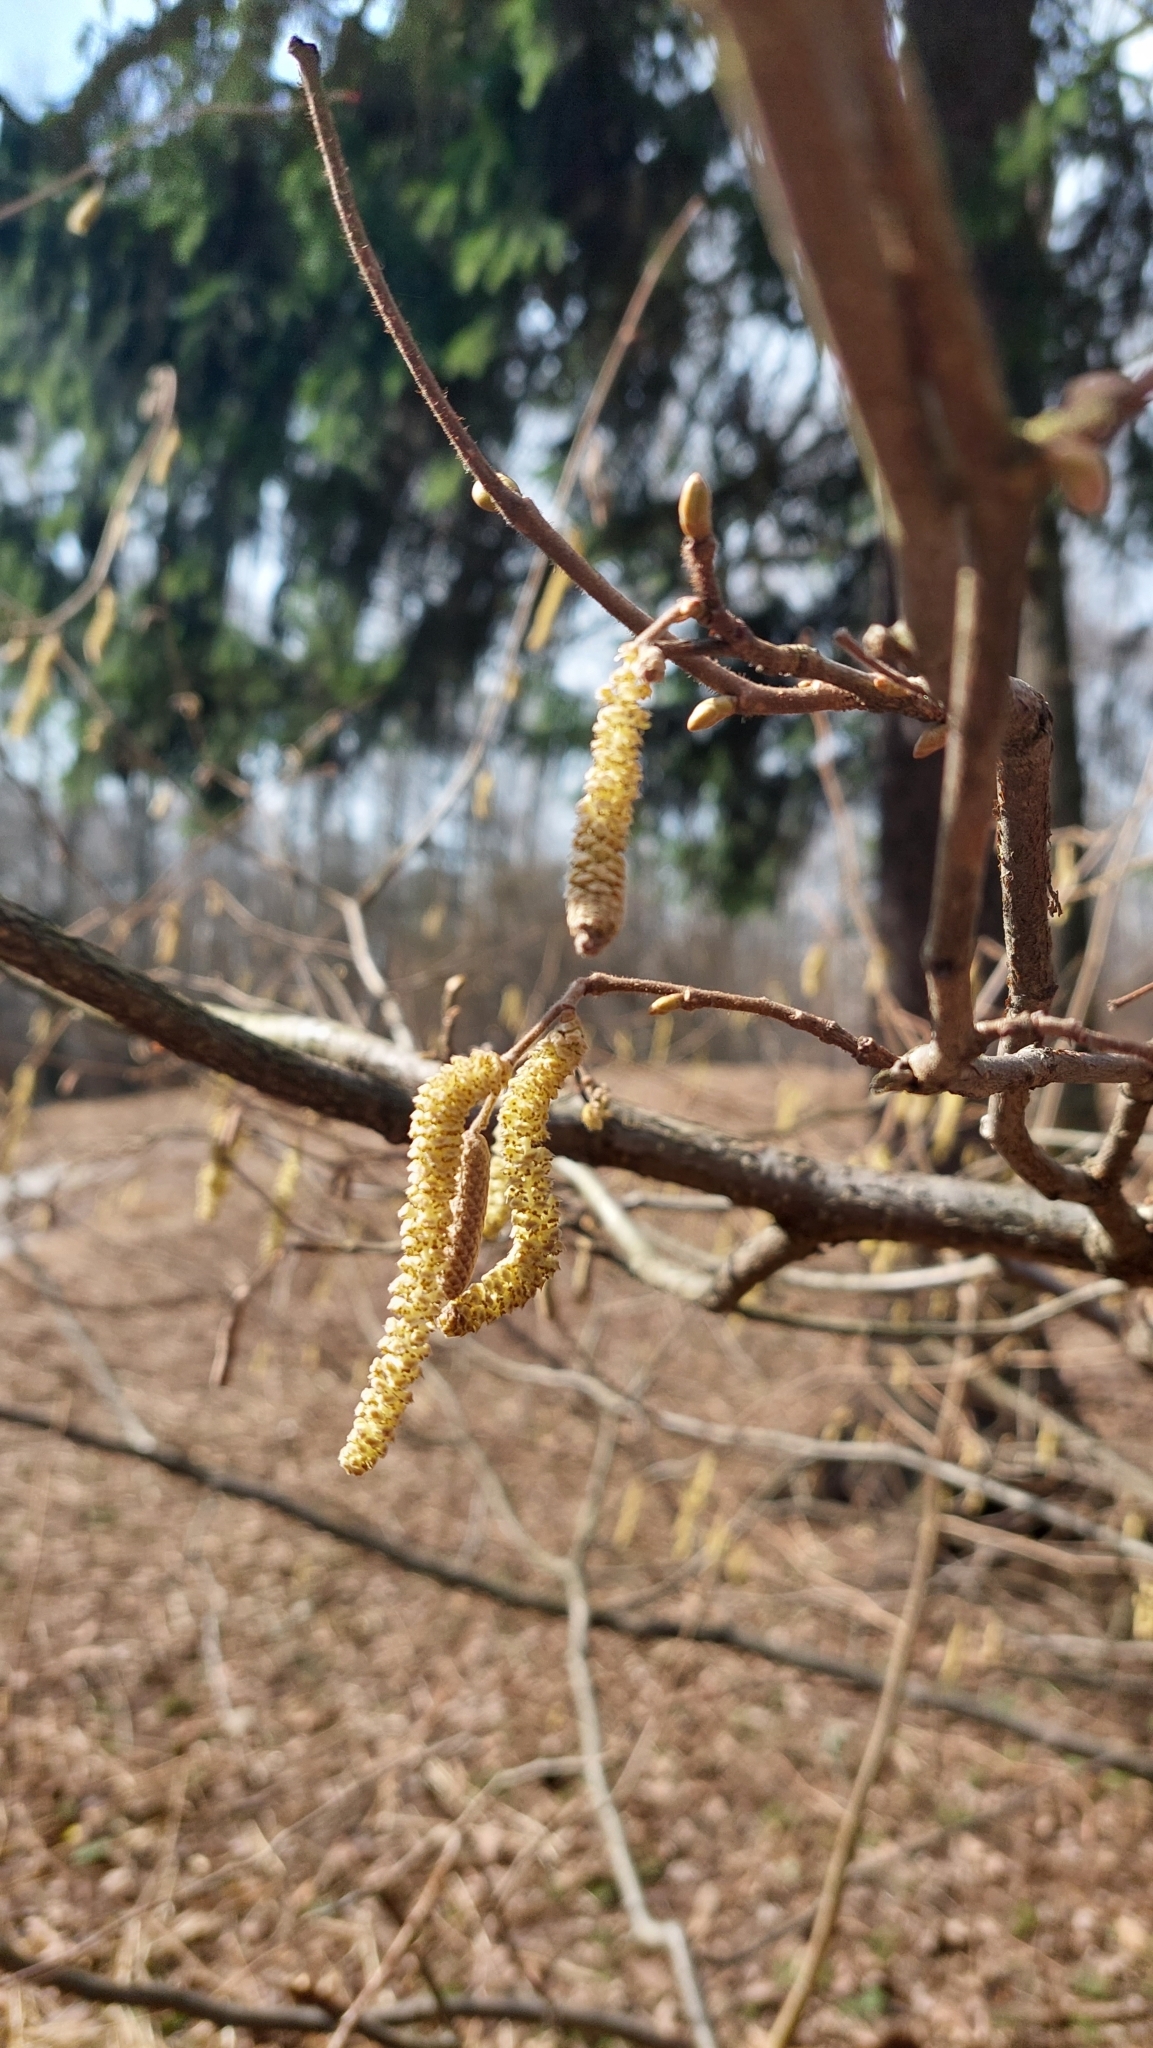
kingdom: Plantae
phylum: Tracheophyta
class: Magnoliopsida
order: Fagales
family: Betulaceae
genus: Corylus
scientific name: Corylus avellana
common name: European hazel
